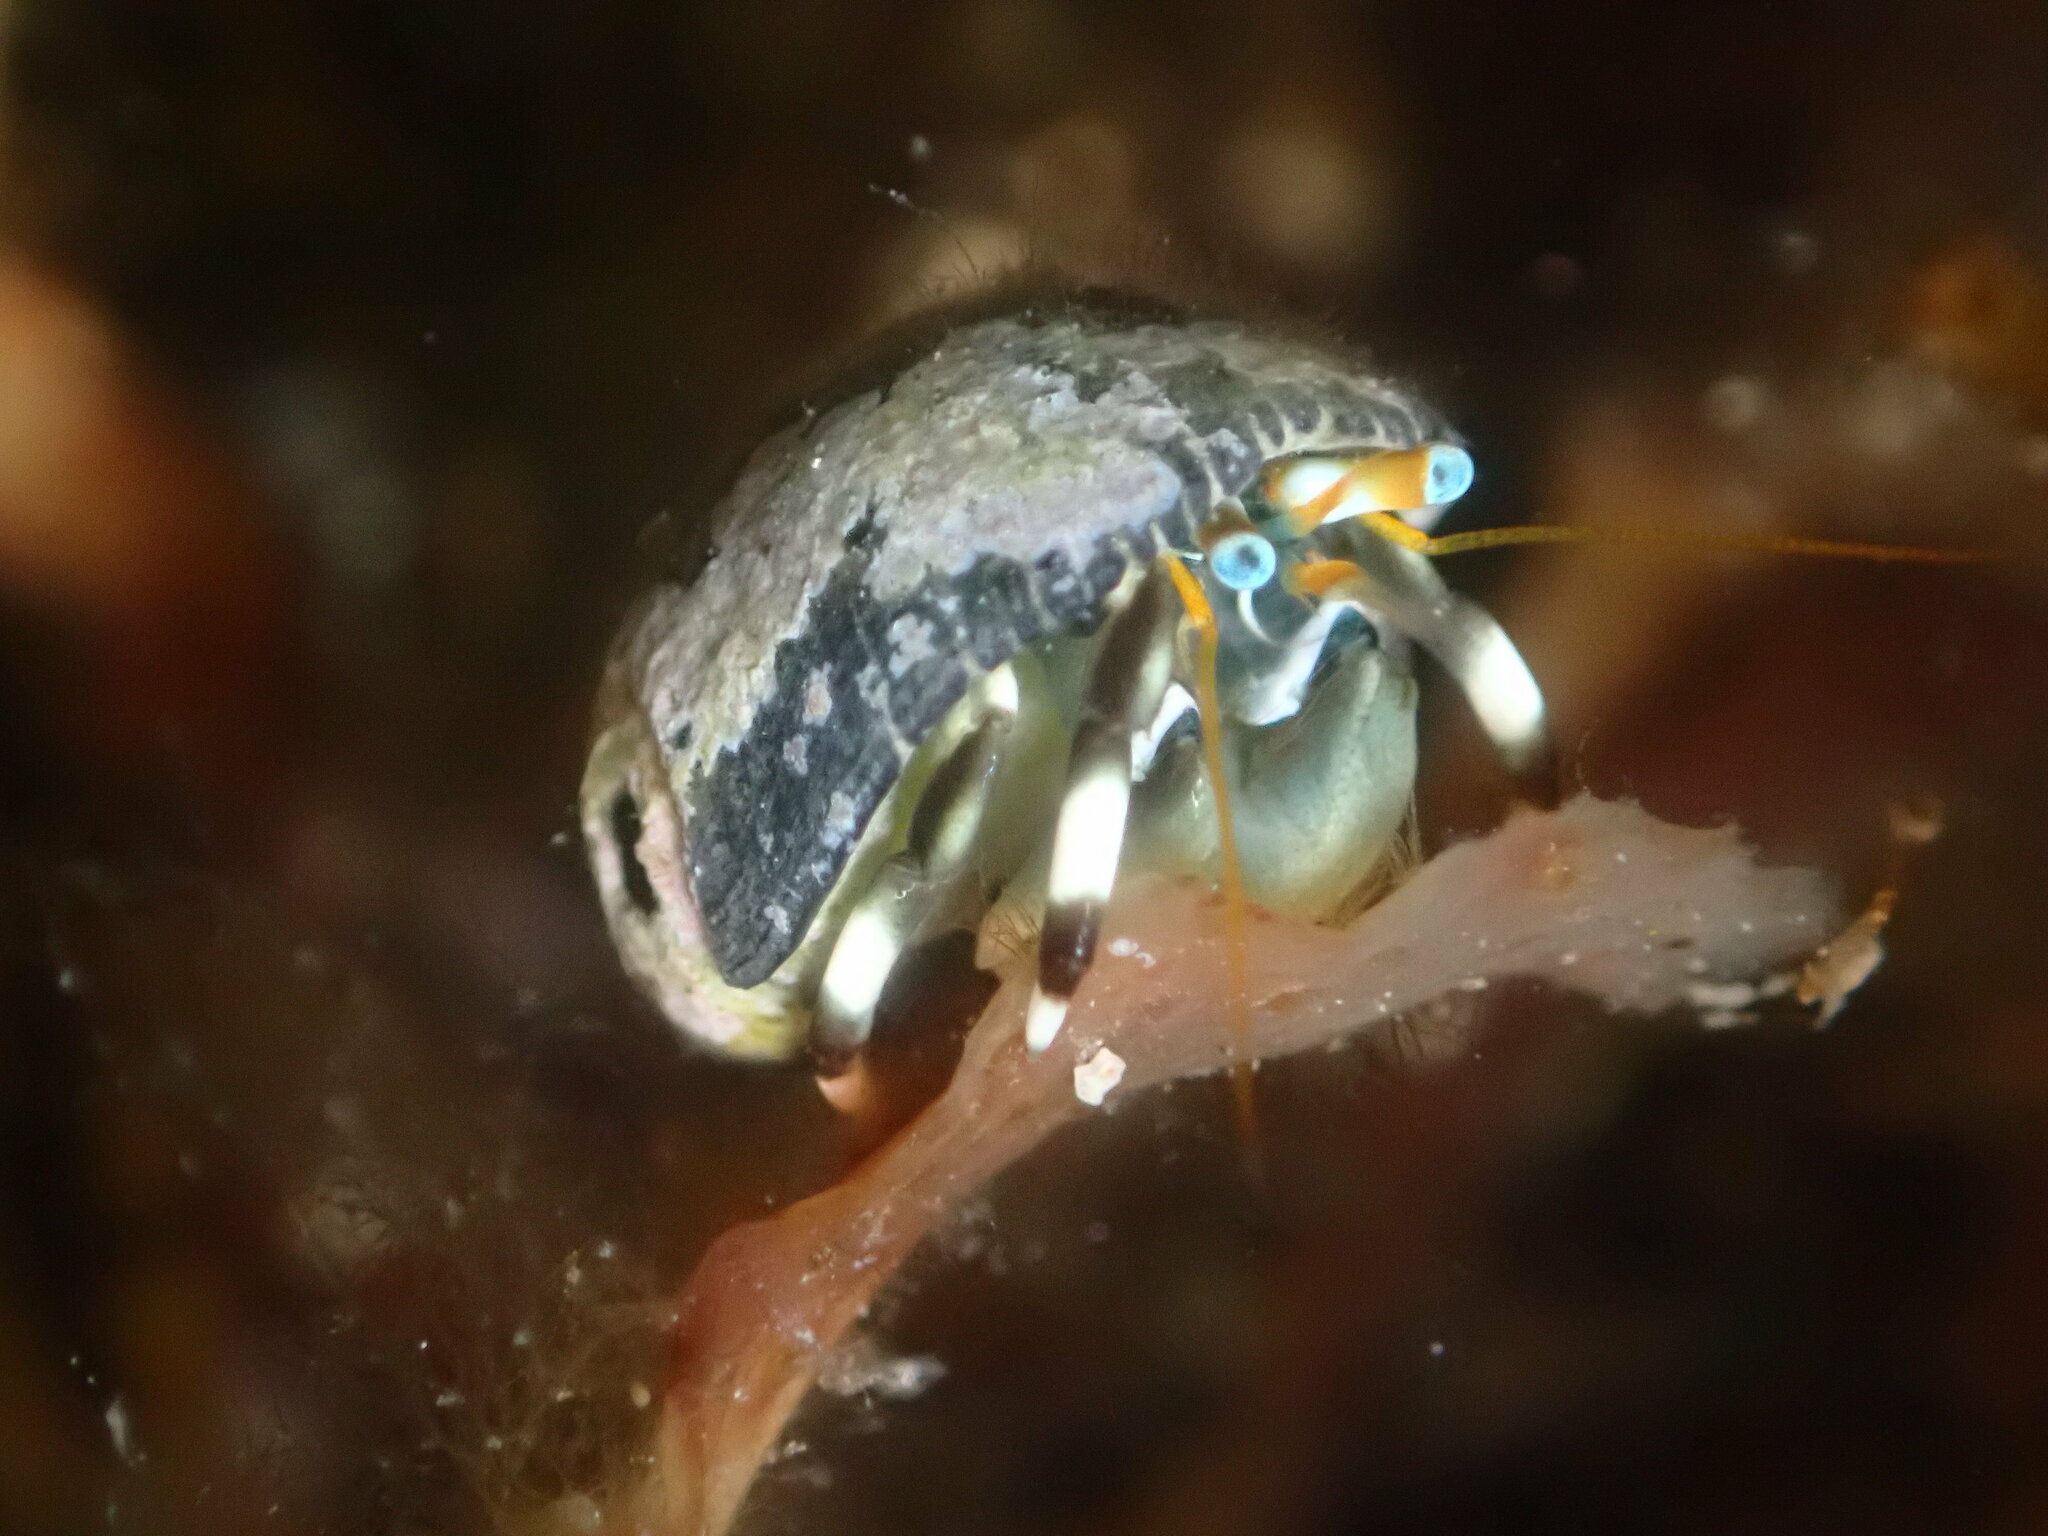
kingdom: Animalia
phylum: Arthropoda
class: Malacostraca
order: Decapoda
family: Diogenidae
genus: Calcinus
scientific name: Calcinus seurati
